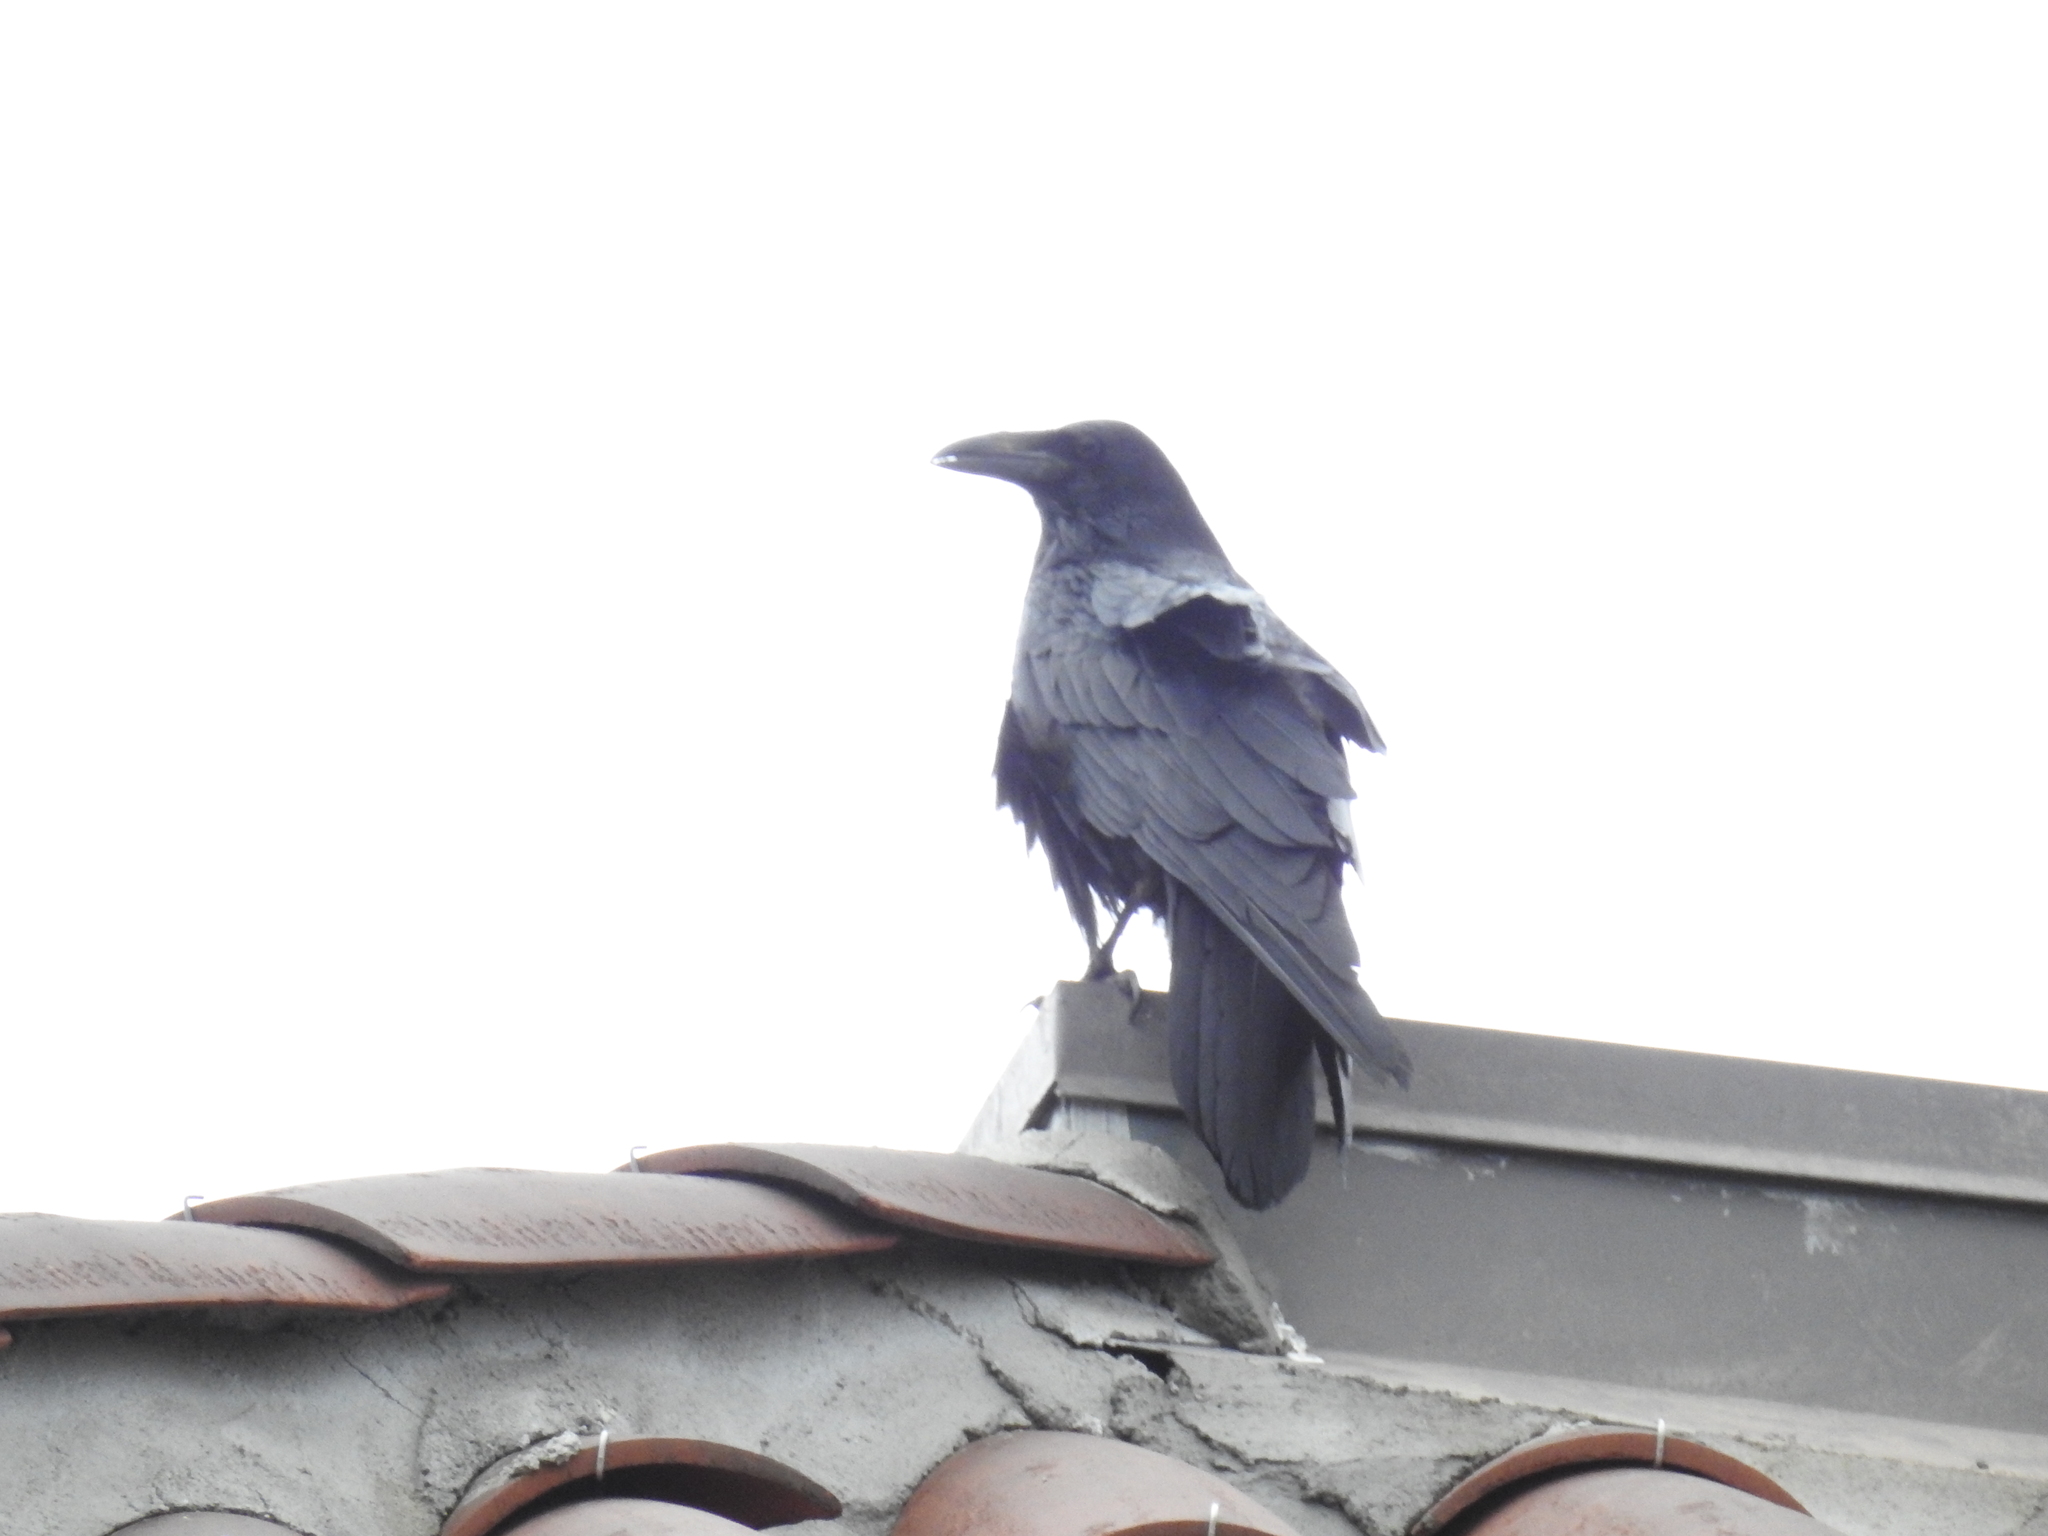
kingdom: Animalia
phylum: Chordata
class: Aves
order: Passeriformes
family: Corvidae
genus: Corvus
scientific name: Corvus corax
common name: Common raven
